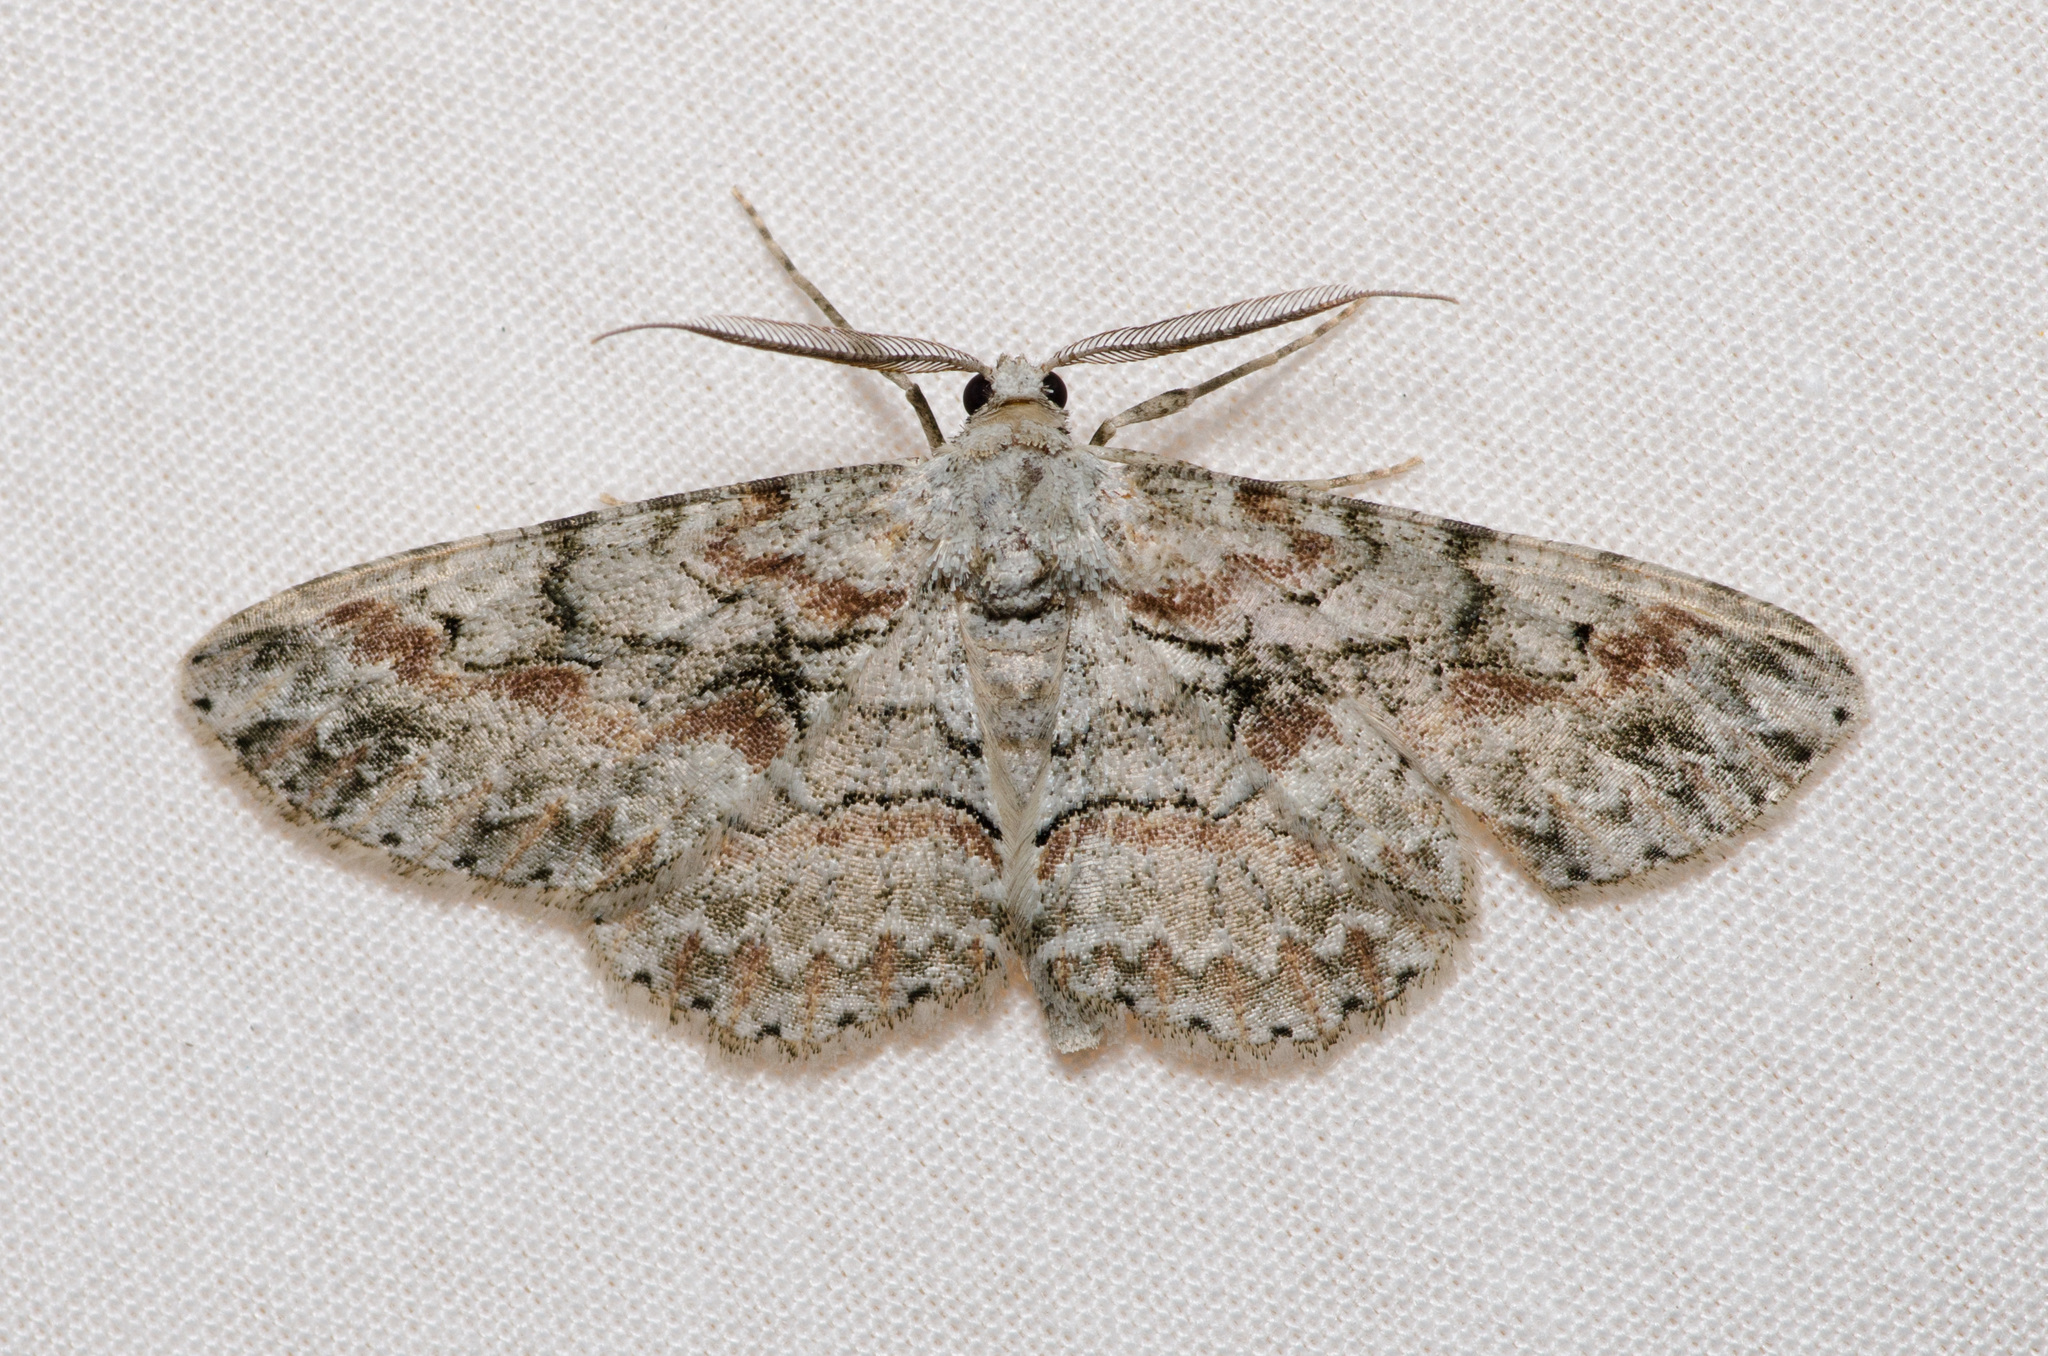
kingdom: Animalia
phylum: Arthropoda
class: Insecta
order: Lepidoptera
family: Geometridae
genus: Iridopsis
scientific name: Iridopsis defectaria
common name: Brown-shaded gray
